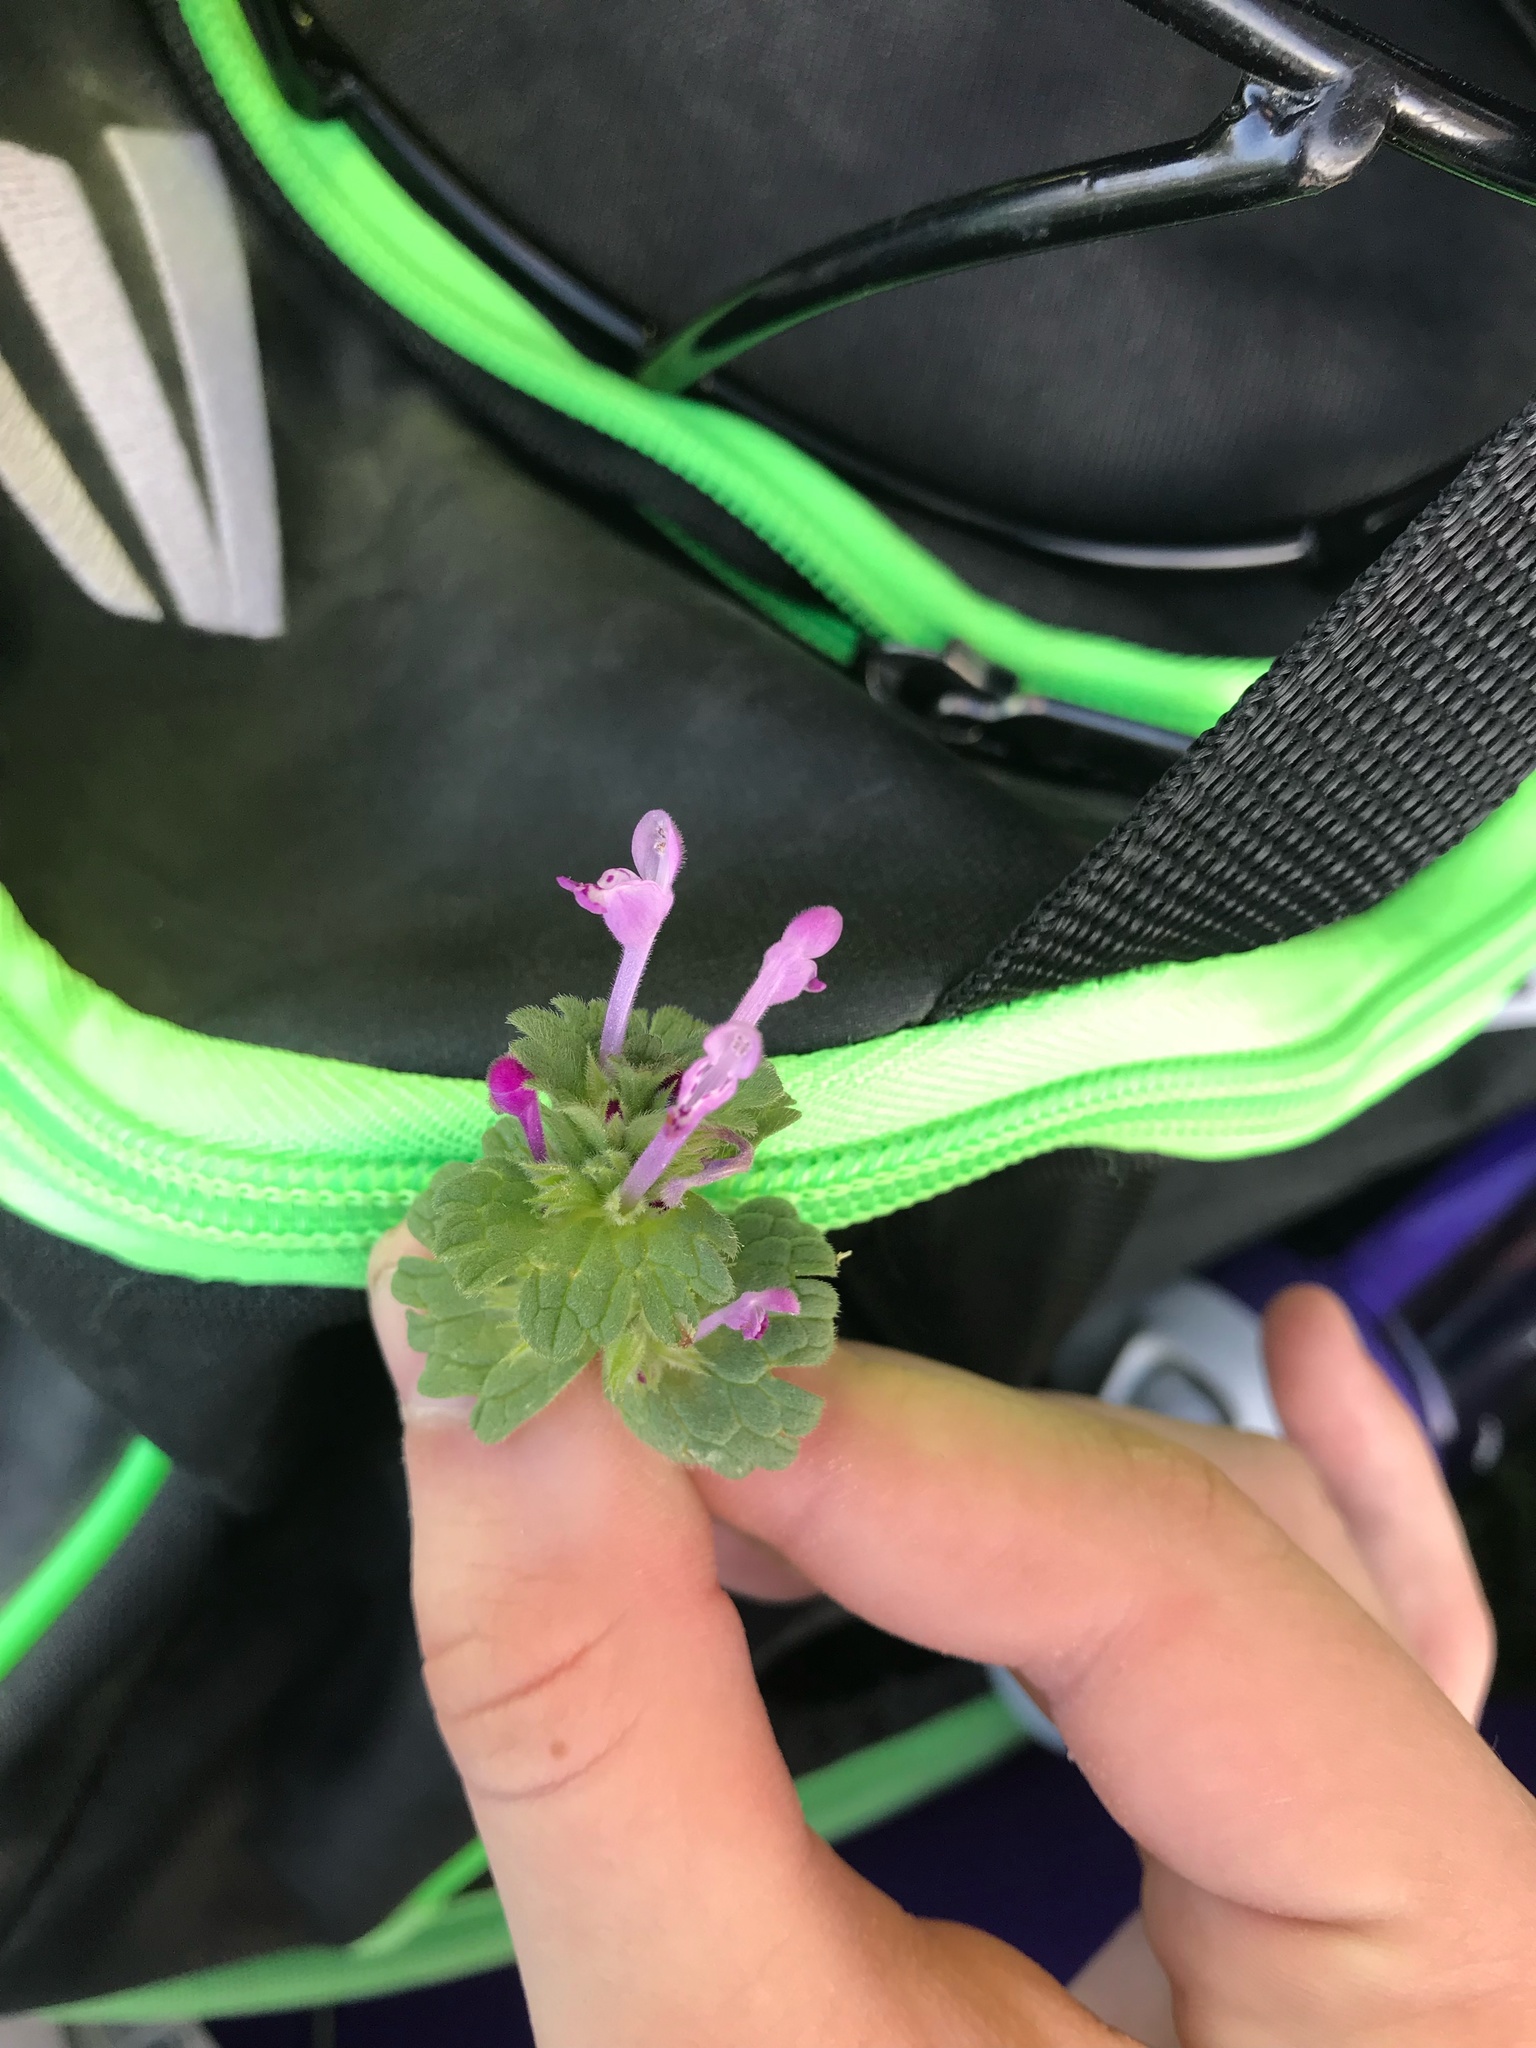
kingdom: Plantae
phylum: Tracheophyta
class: Magnoliopsida
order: Lamiales
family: Lamiaceae
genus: Lamium
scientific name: Lamium amplexicaule
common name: Henbit dead-nettle
